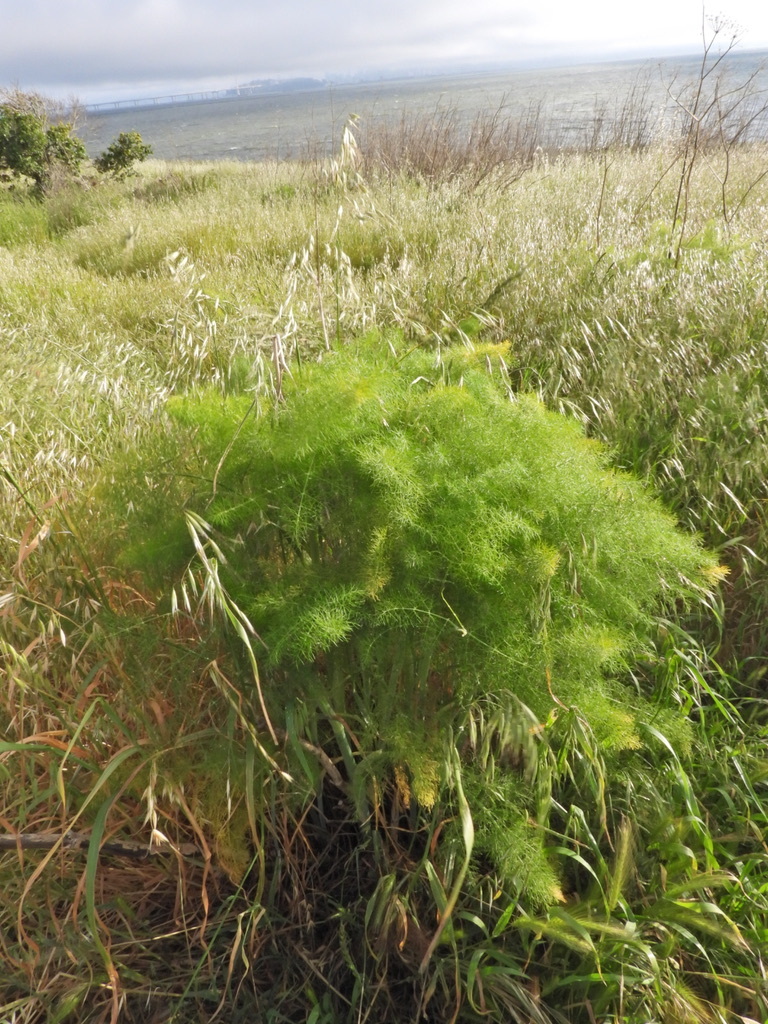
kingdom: Plantae
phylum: Tracheophyta
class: Magnoliopsida
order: Apiales
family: Apiaceae
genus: Foeniculum
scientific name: Foeniculum vulgare
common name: Fennel
